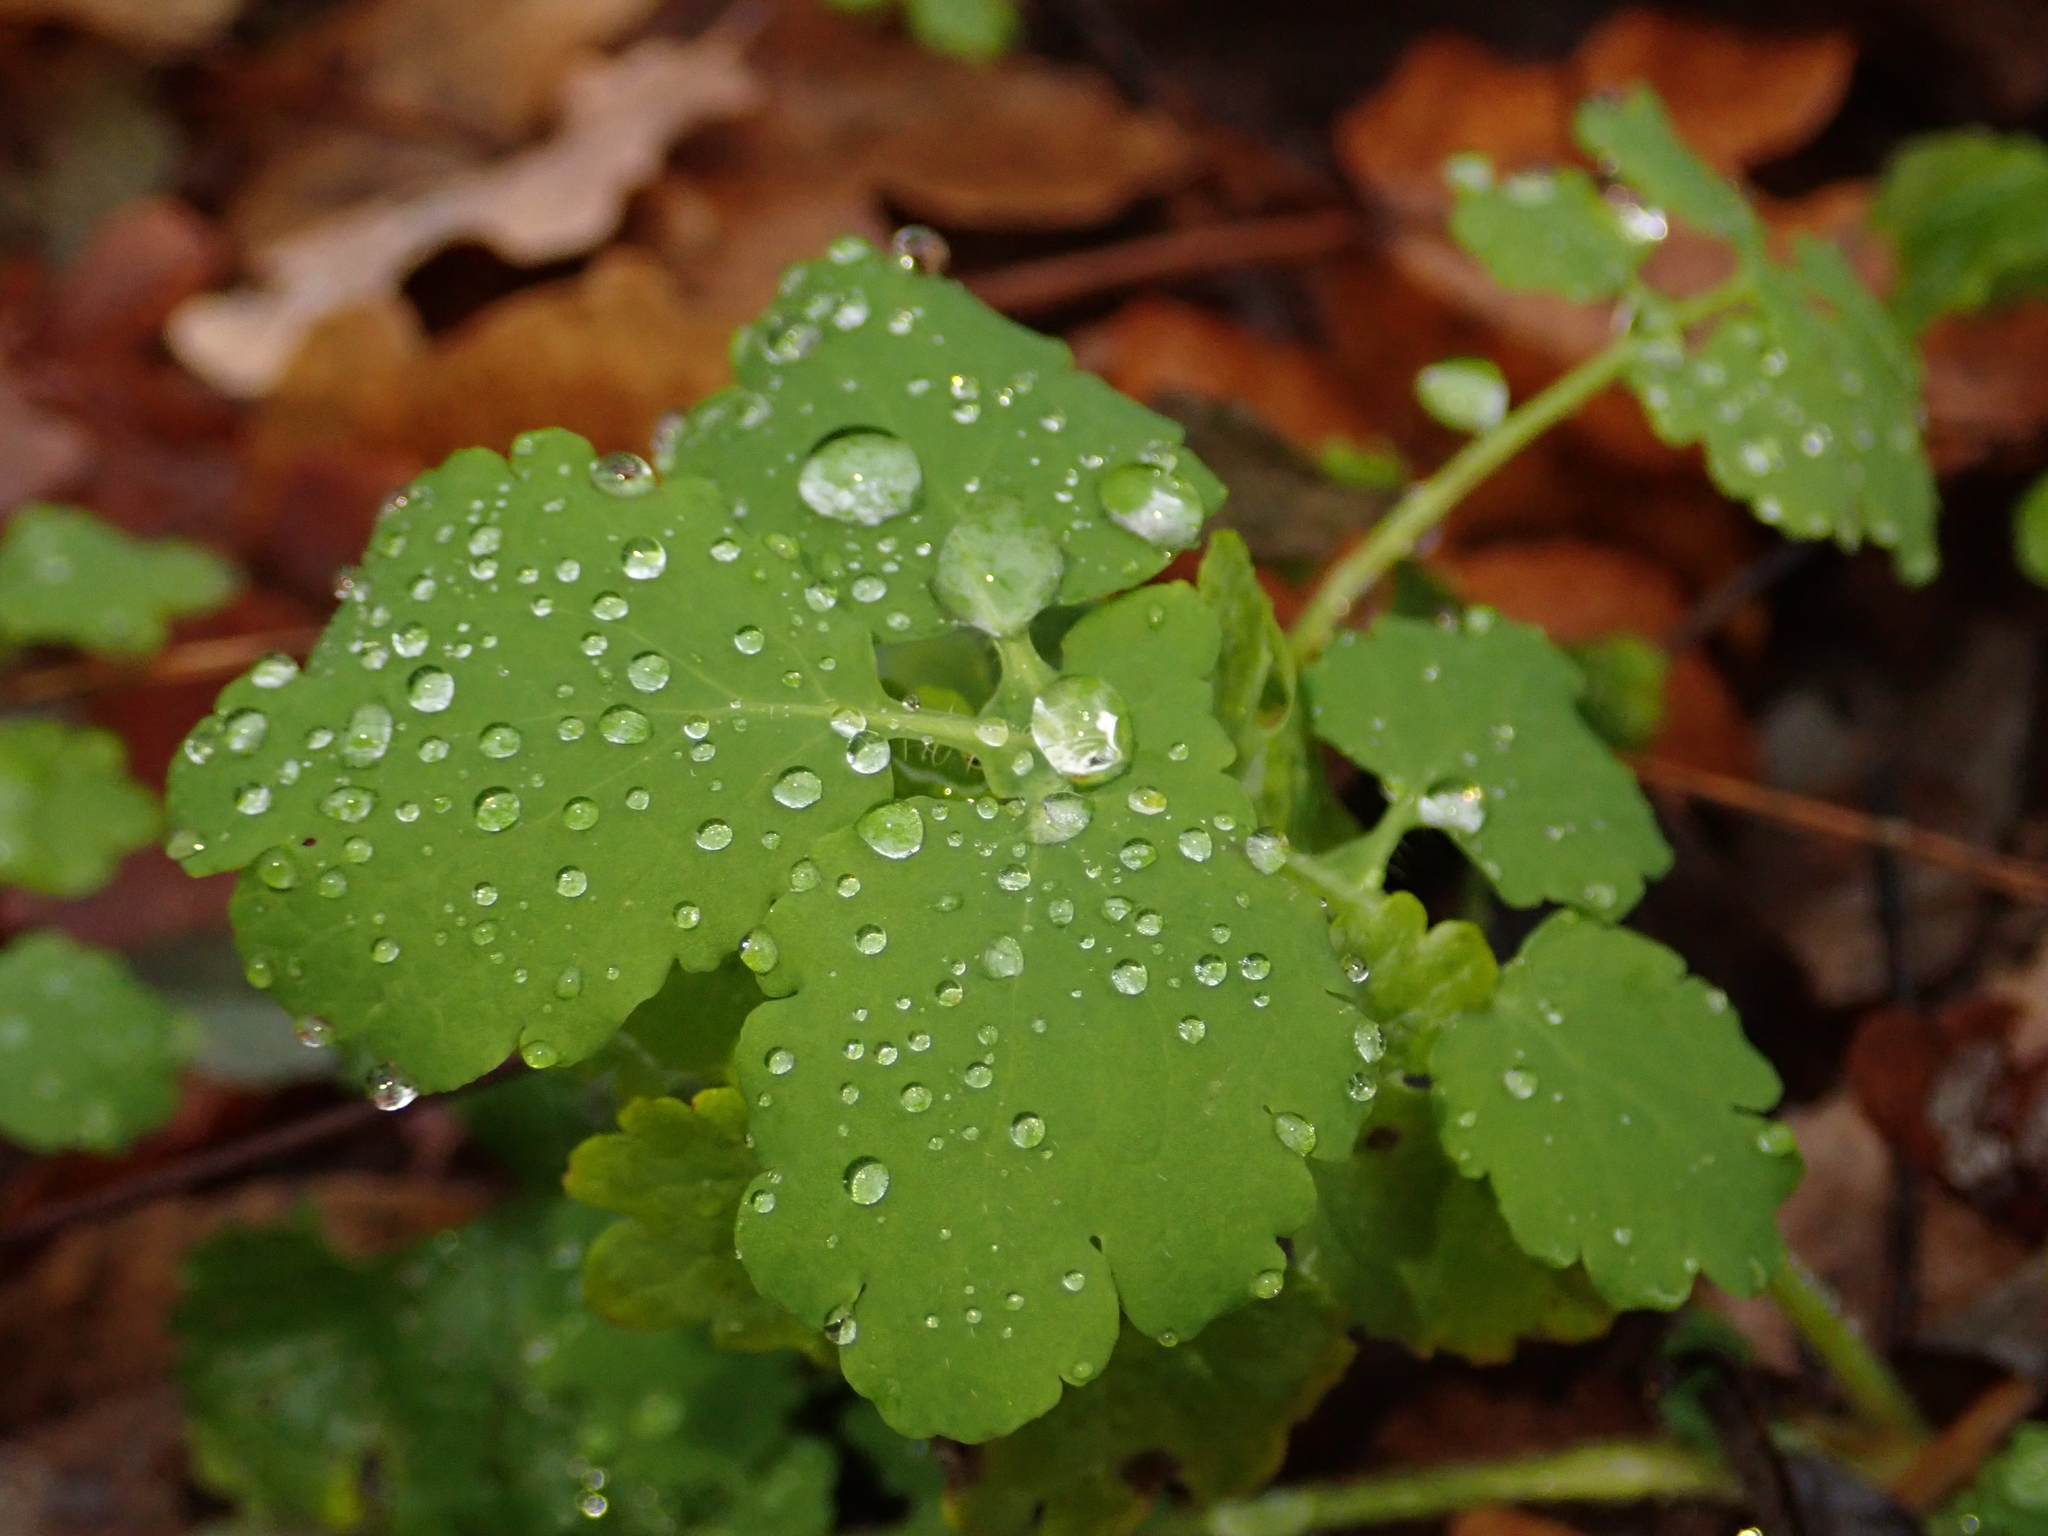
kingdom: Plantae
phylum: Tracheophyta
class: Magnoliopsida
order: Ranunculales
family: Papaveraceae
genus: Chelidonium
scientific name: Chelidonium majus
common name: Greater celandine
